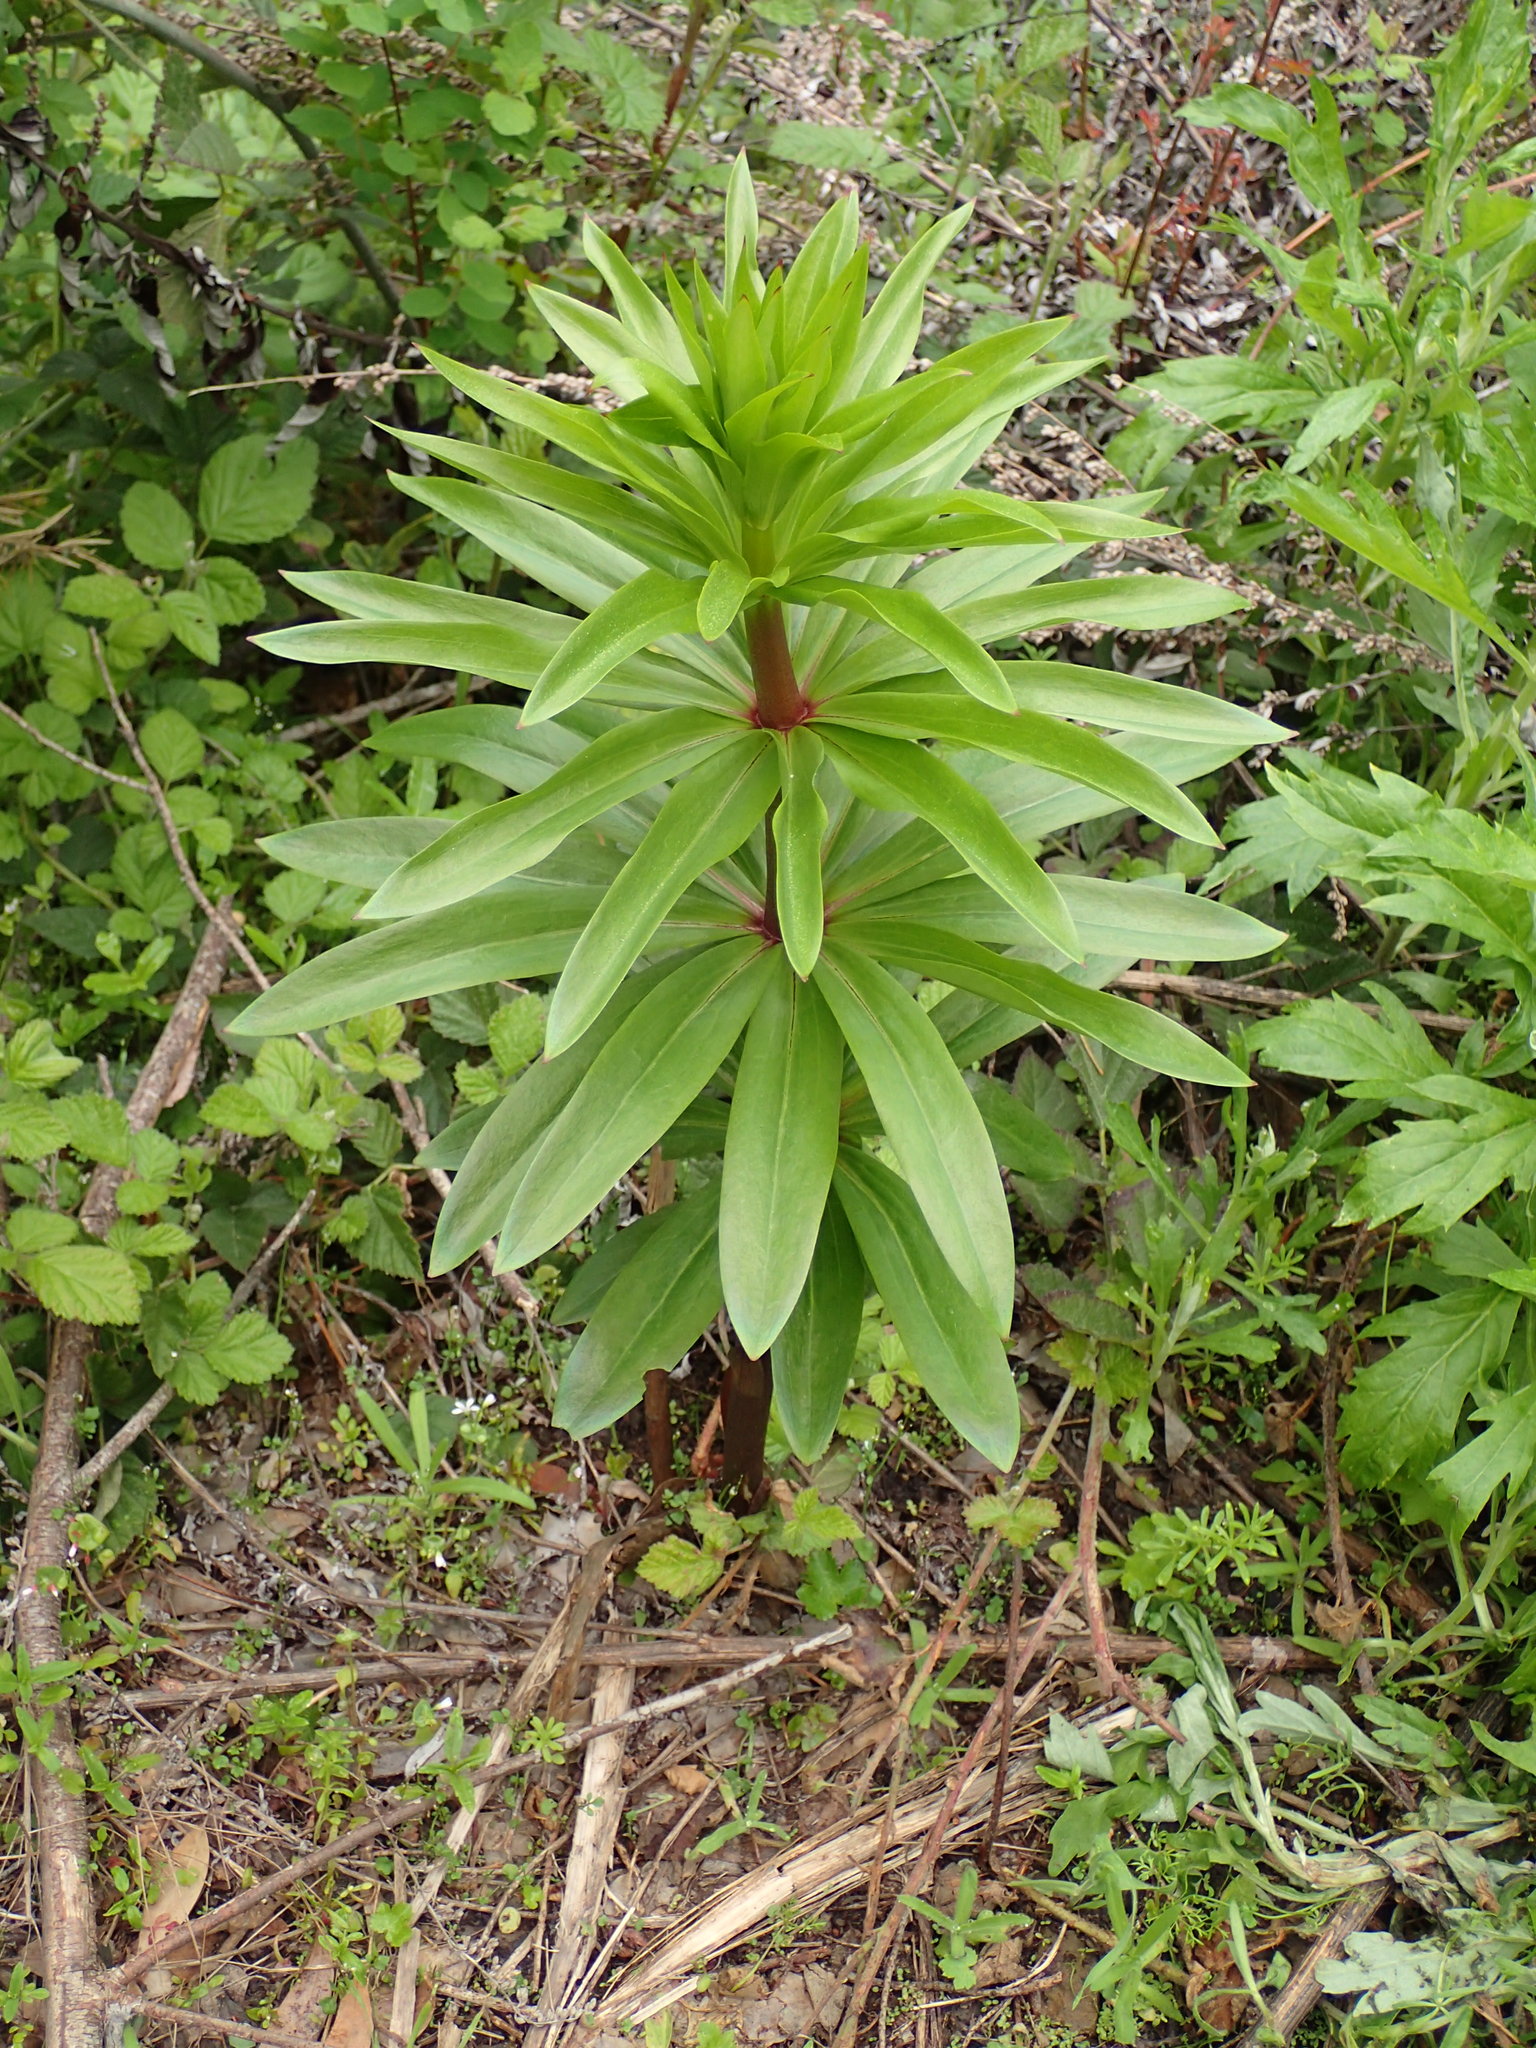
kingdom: Plantae
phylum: Tracheophyta
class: Liliopsida
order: Liliales
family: Liliaceae
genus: Lilium
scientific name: Lilium humboldtii
